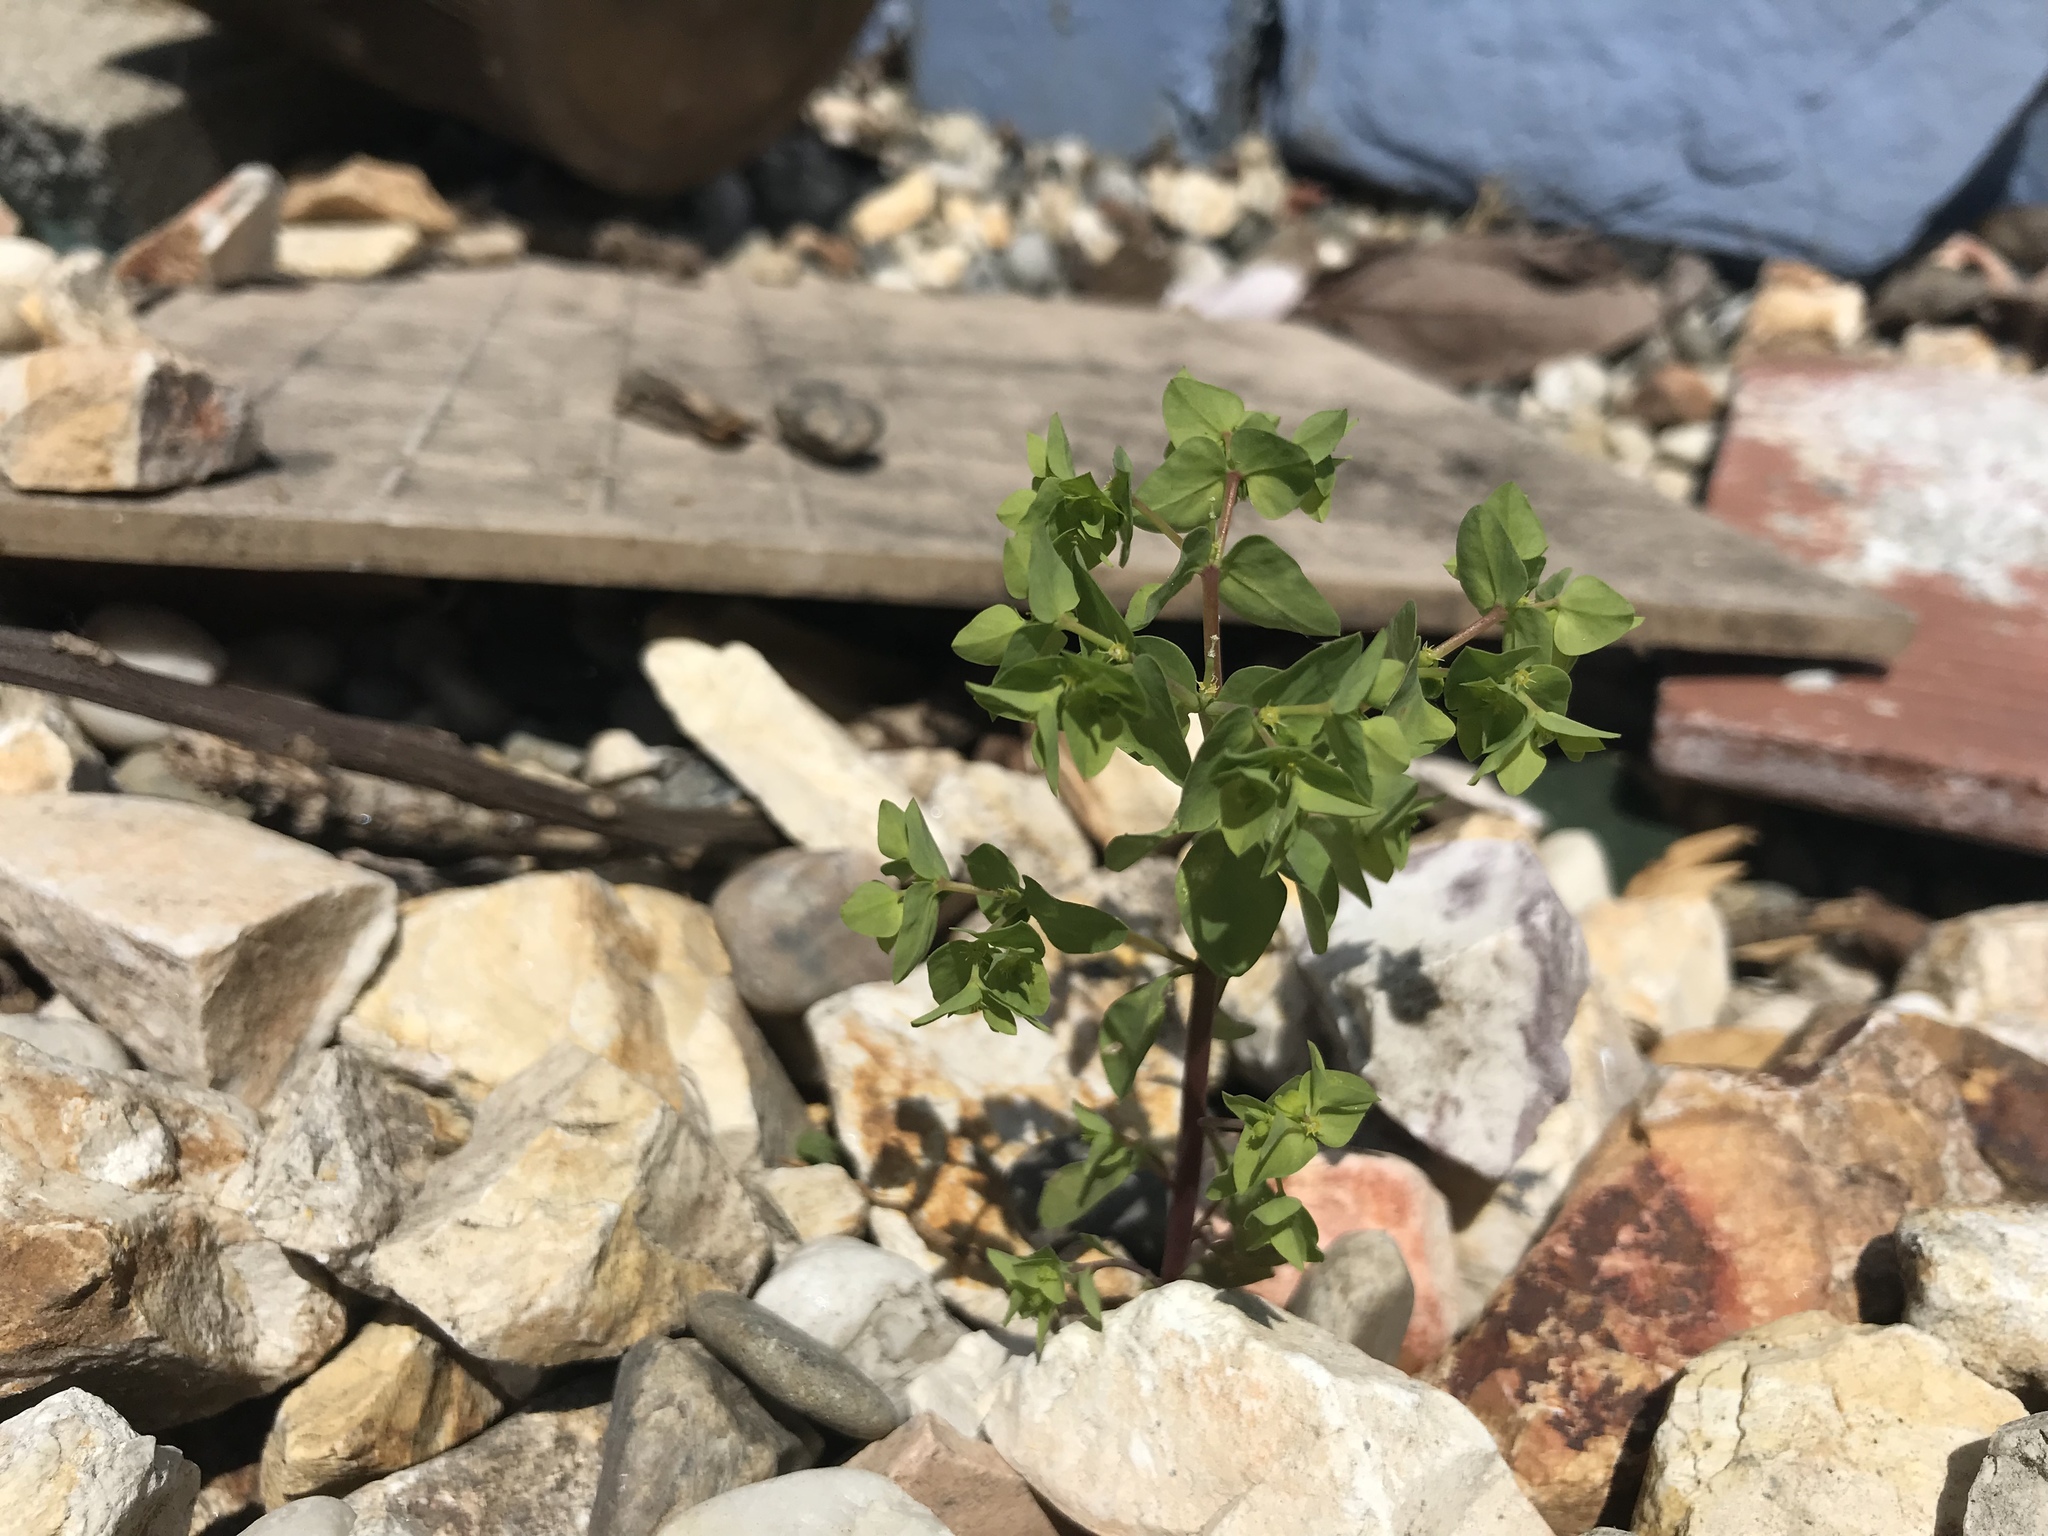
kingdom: Plantae
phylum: Tracheophyta
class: Magnoliopsida
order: Malpighiales
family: Euphorbiaceae
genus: Euphorbia
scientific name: Euphorbia peplus
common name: Petty spurge
